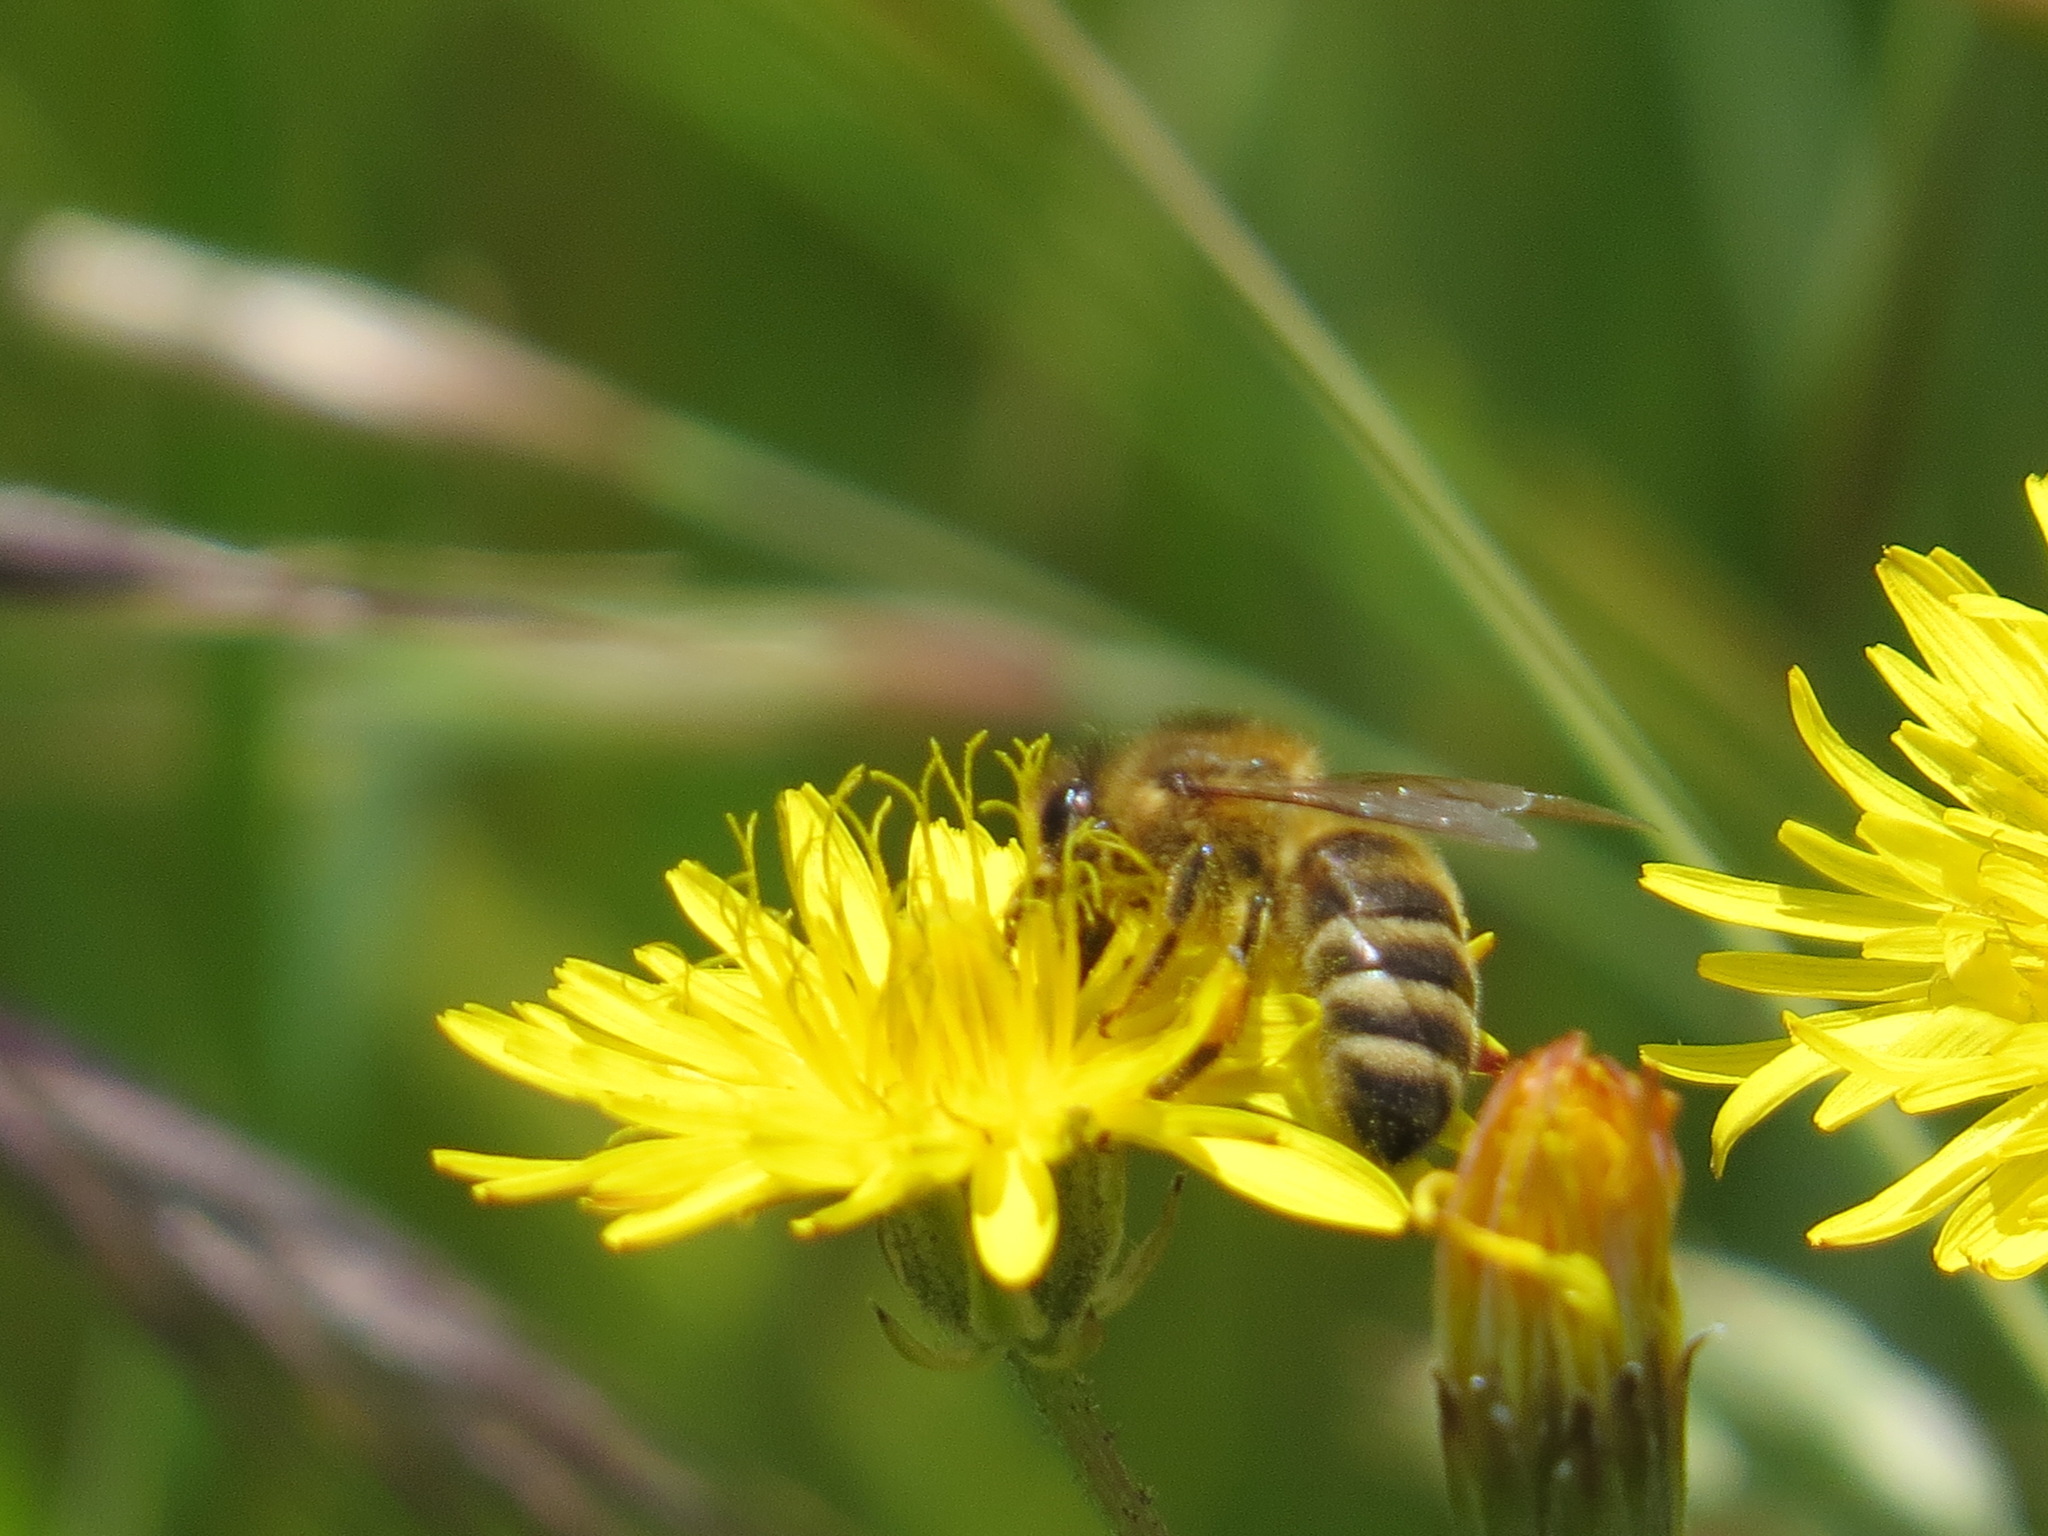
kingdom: Animalia
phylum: Arthropoda
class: Insecta
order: Hymenoptera
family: Apidae
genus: Apis
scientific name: Apis mellifera
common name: Honey bee
